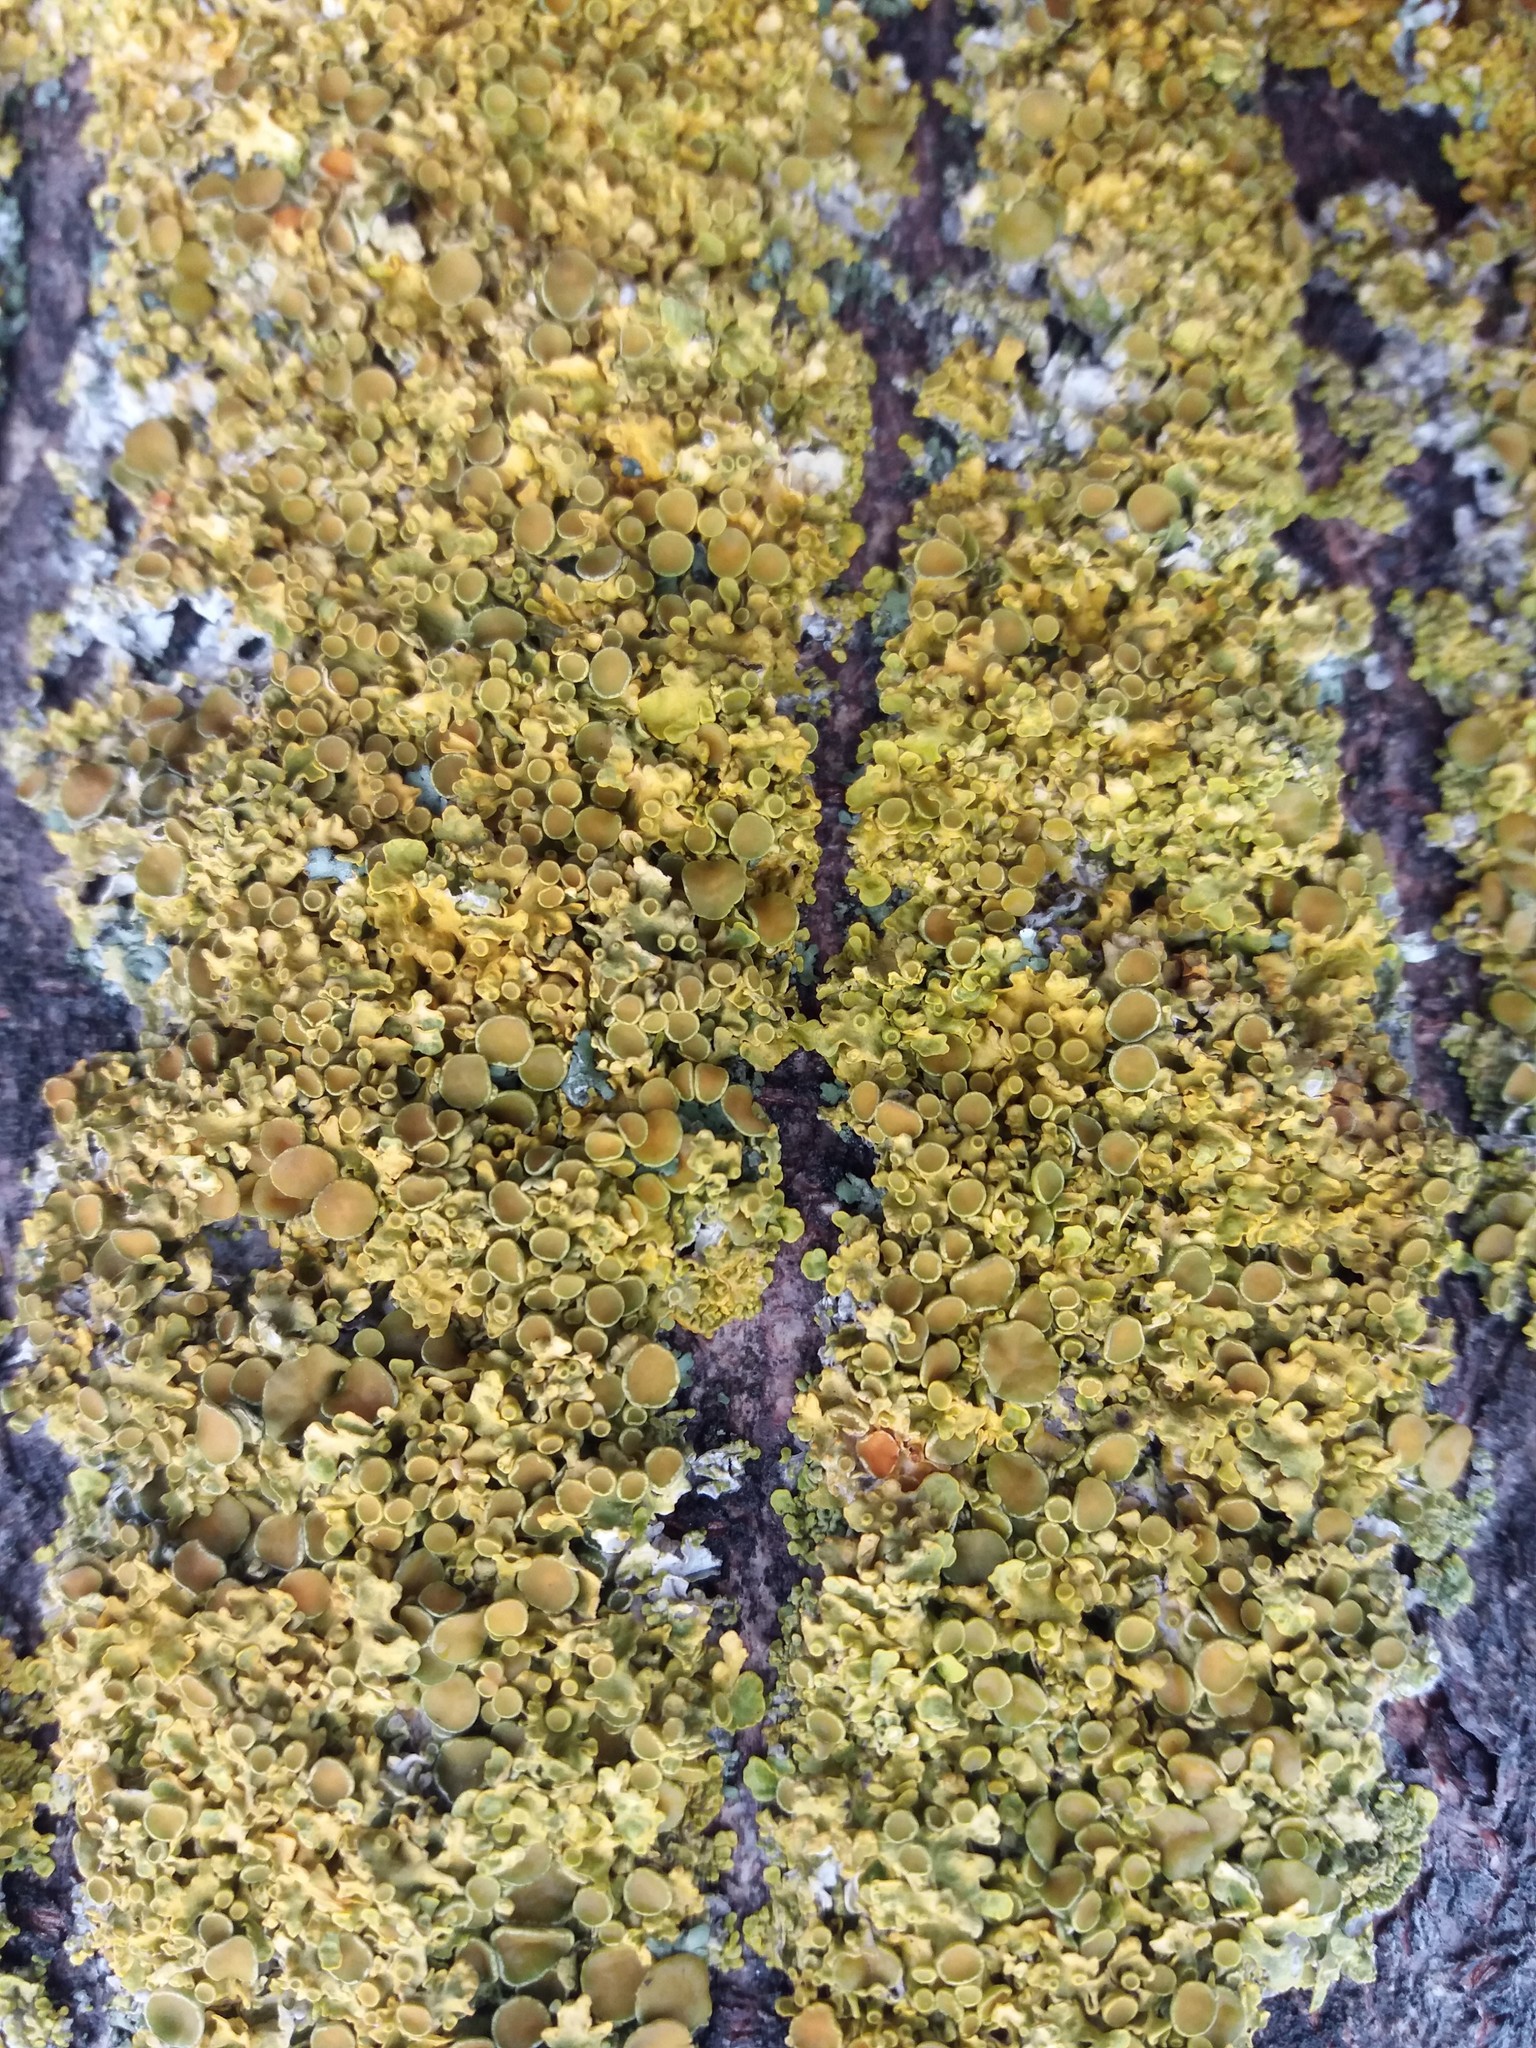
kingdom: Fungi
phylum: Ascomycota
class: Lecanoromycetes
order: Teloschistales
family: Teloschistaceae
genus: Xanthoria
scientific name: Xanthoria parietina
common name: Common orange lichen
